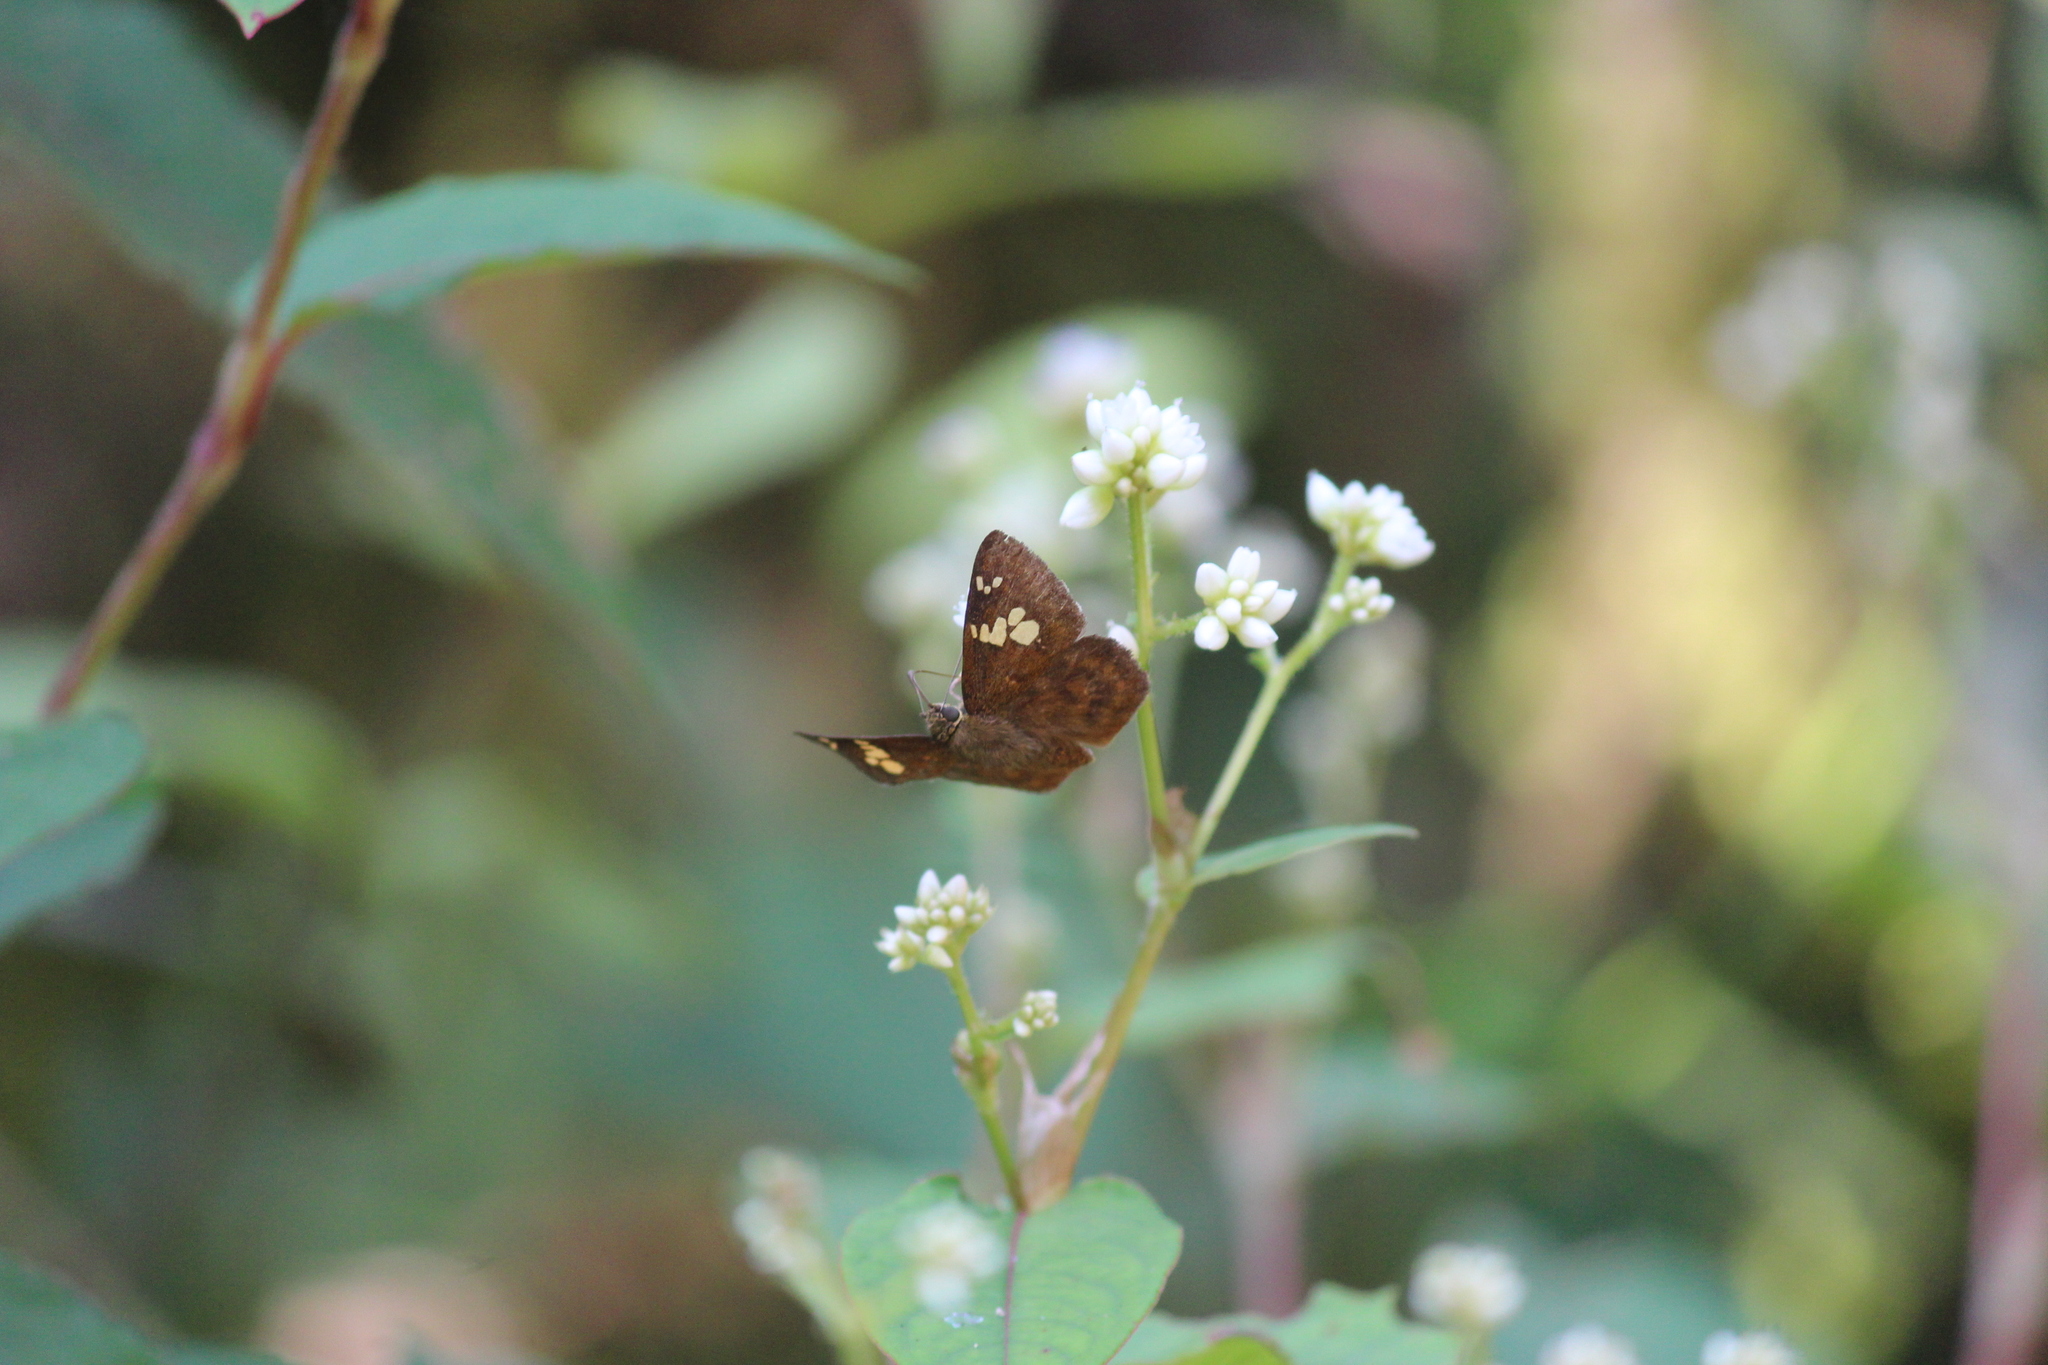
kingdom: Animalia
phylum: Arthropoda
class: Insecta
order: Lepidoptera
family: Hesperiidae
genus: Pseudocoladenia
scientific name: Pseudocoladenia dan
